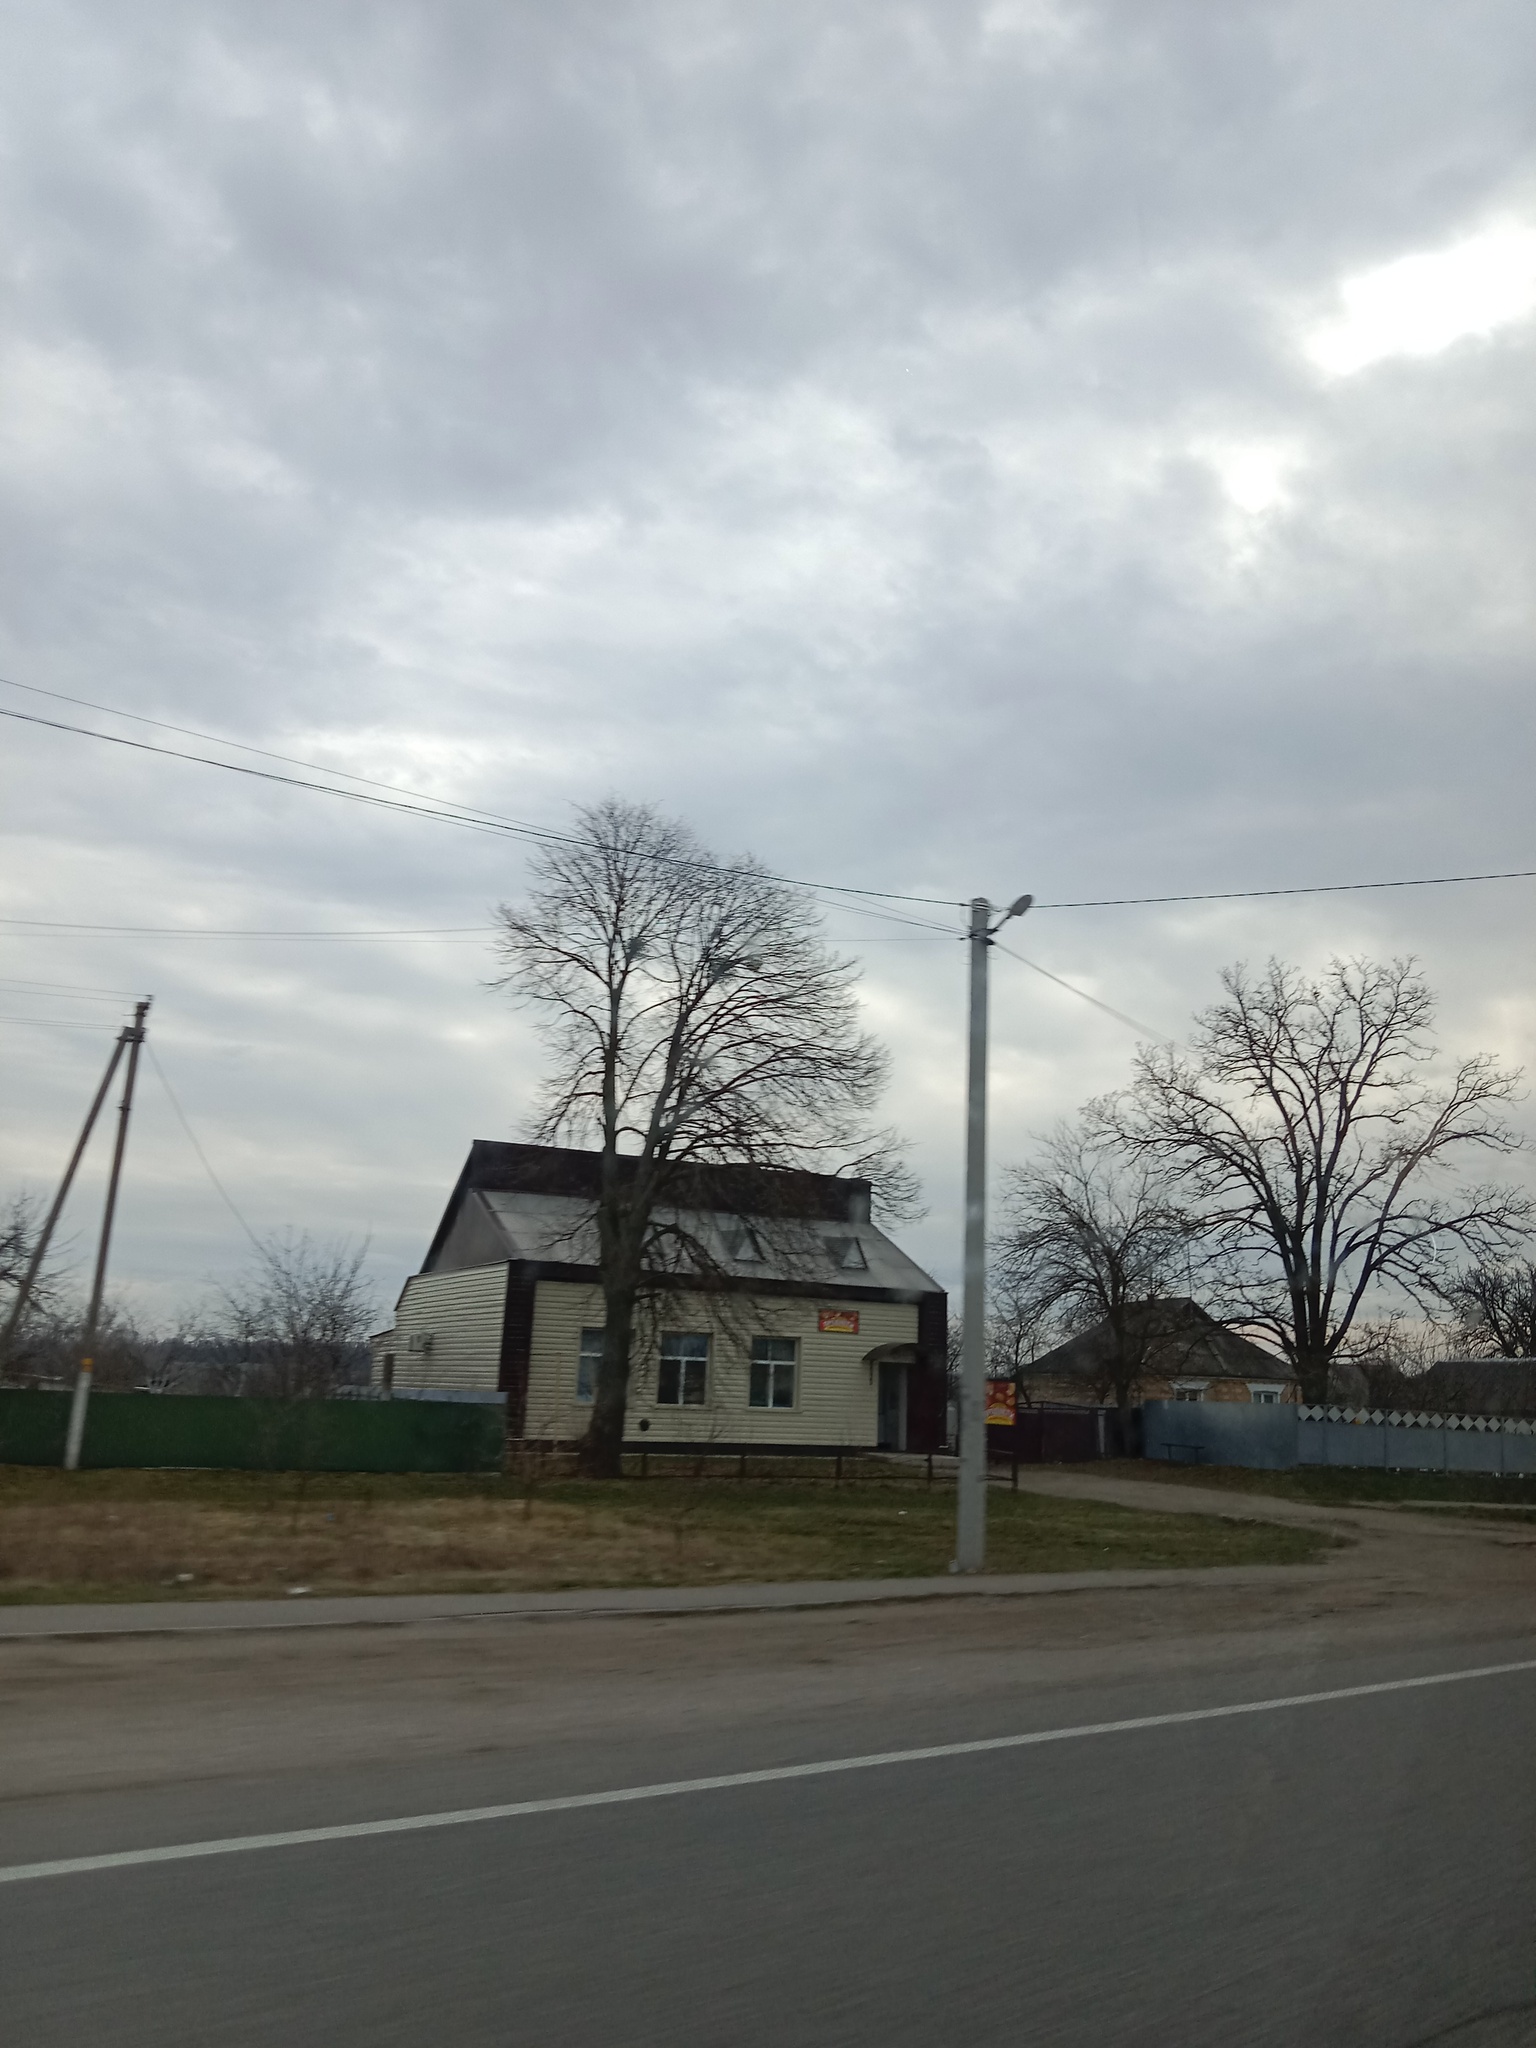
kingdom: Plantae
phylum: Tracheophyta
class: Magnoliopsida
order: Santalales
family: Viscaceae
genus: Viscum
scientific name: Viscum album
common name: Mistletoe
